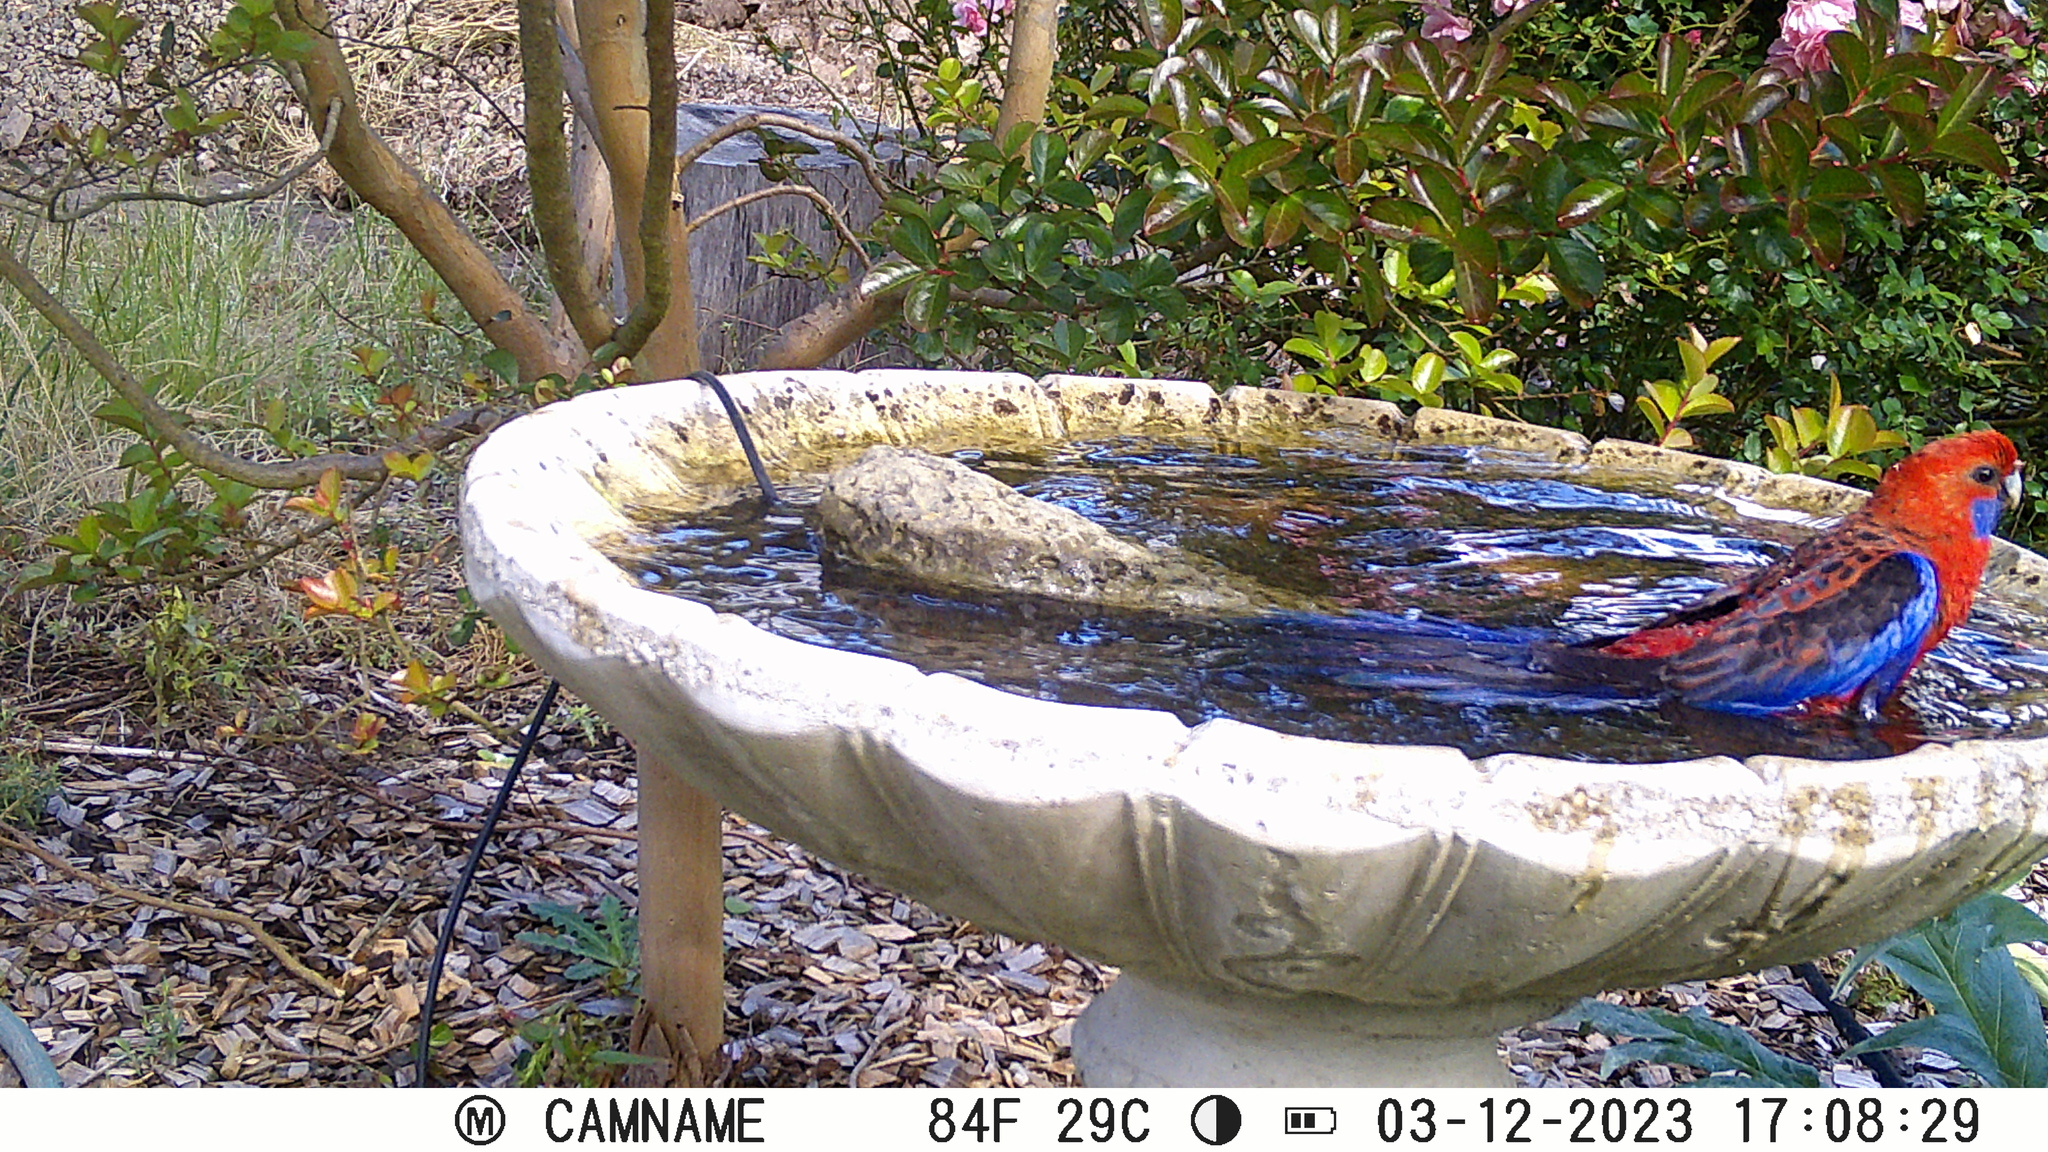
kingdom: Animalia
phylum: Chordata
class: Aves
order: Psittaciformes
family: Psittacidae
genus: Platycercus
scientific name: Platycercus elegans
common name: Crimson rosella
